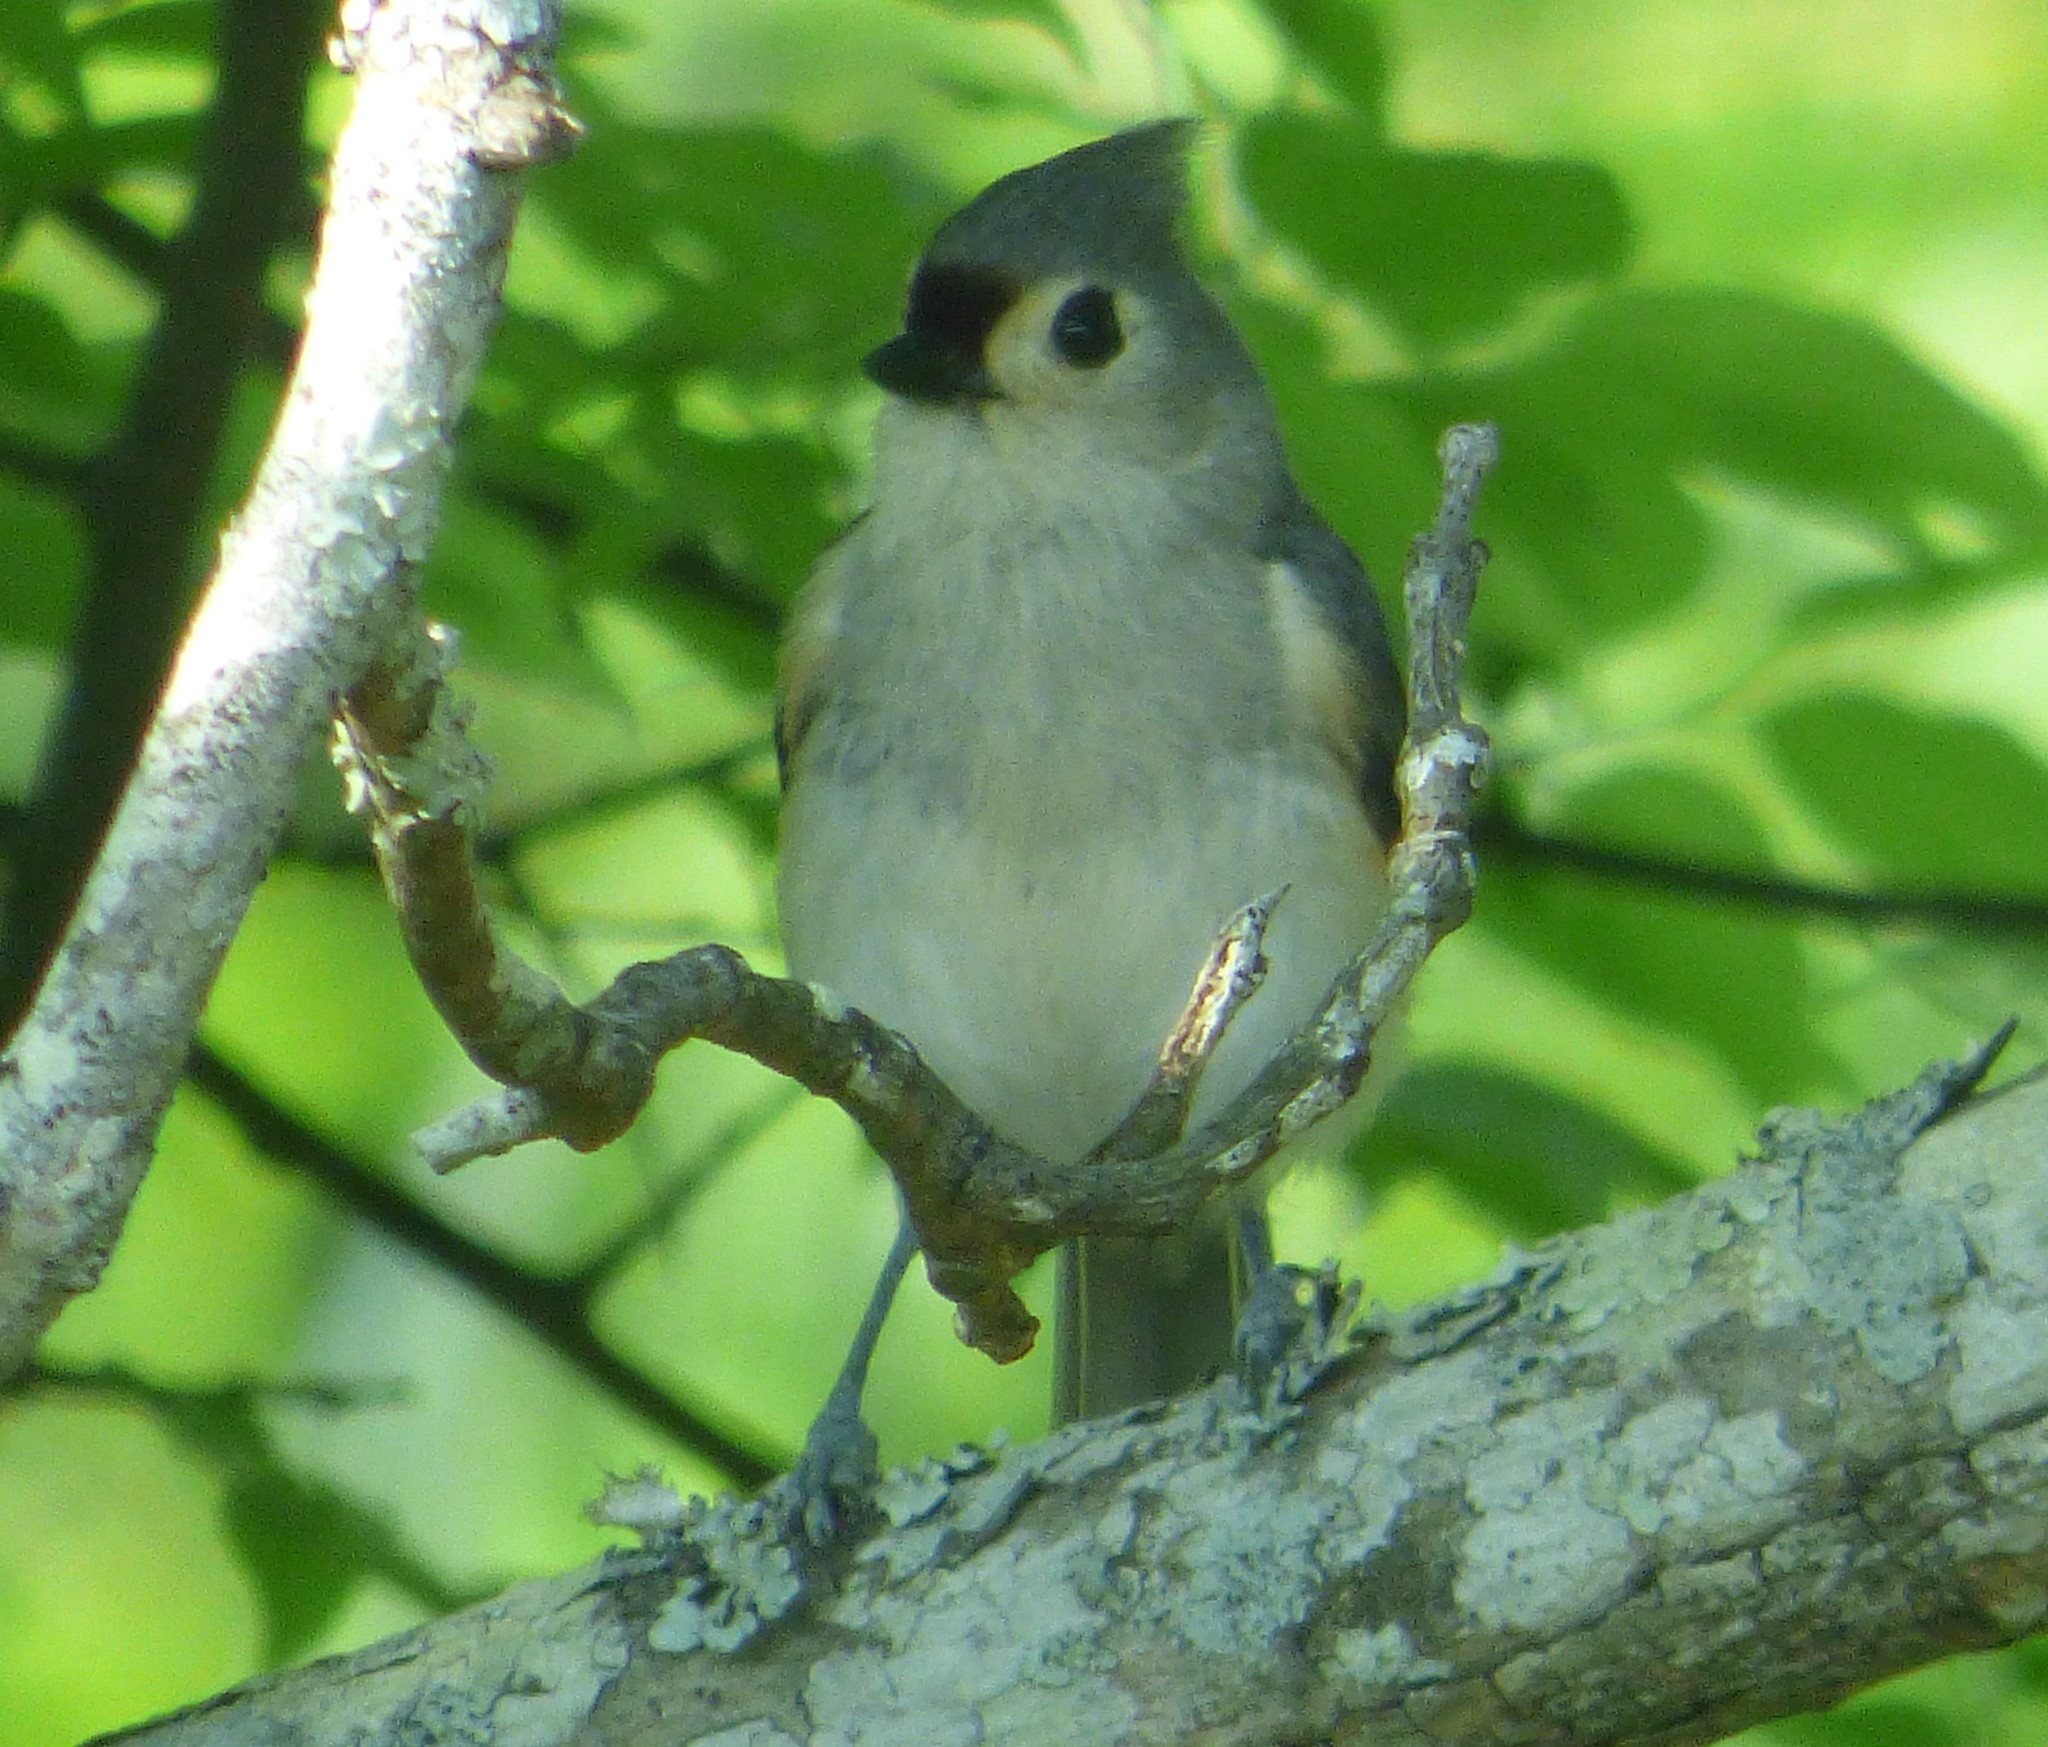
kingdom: Animalia
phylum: Chordata
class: Aves
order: Passeriformes
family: Paridae
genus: Baeolophus
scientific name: Baeolophus bicolor
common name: Tufted titmouse
